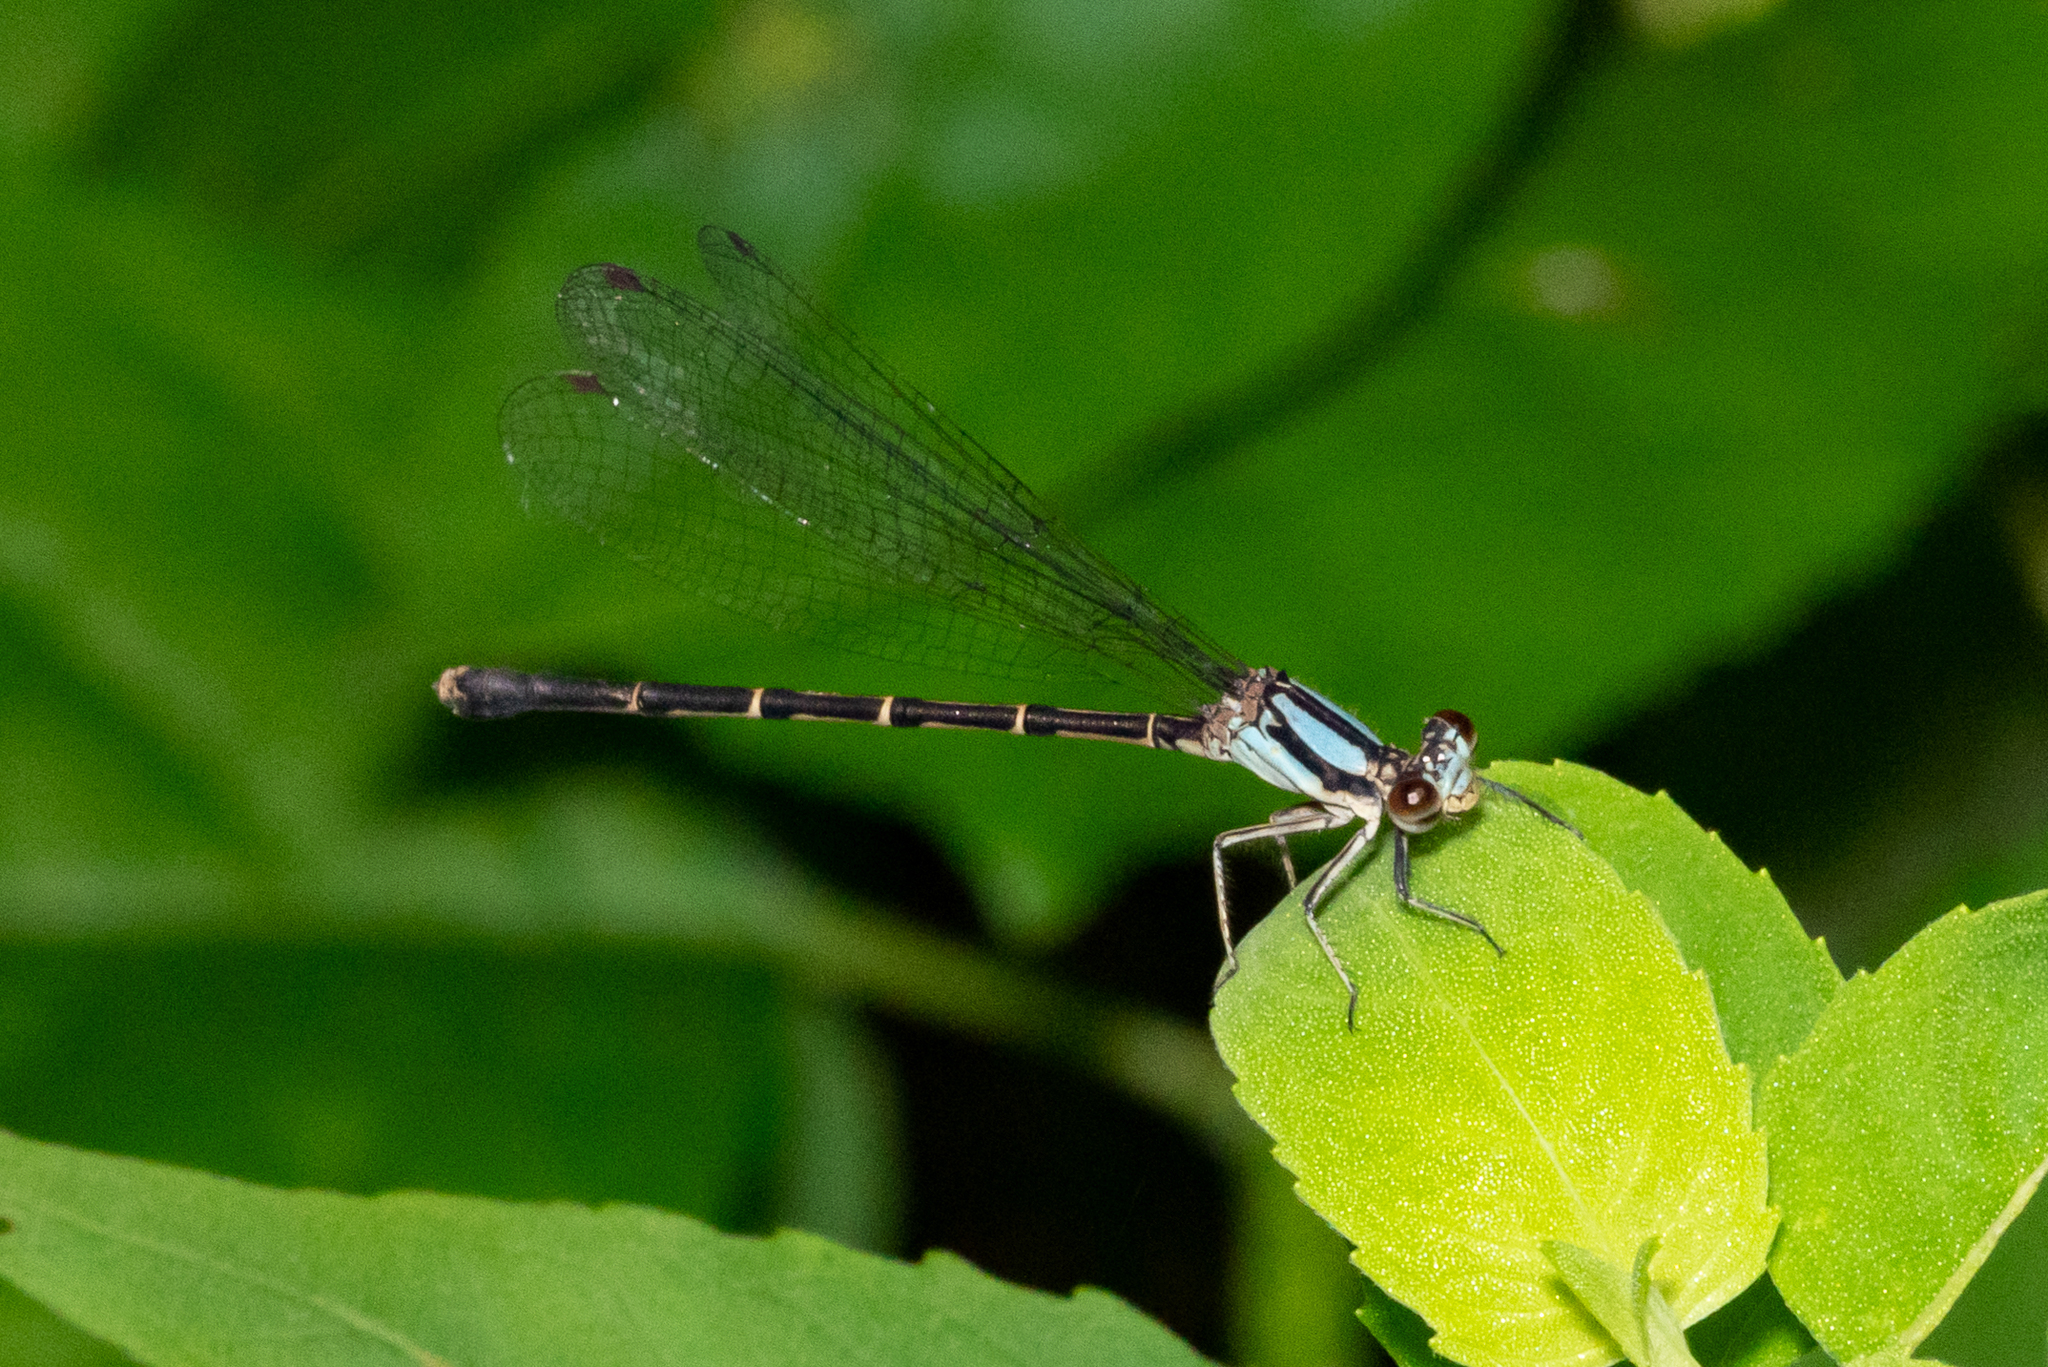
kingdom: Animalia
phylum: Arthropoda
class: Insecta
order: Odonata
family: Coenagrionidae
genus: Argia
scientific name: Argia tibialis
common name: Blue-tipped dancer
